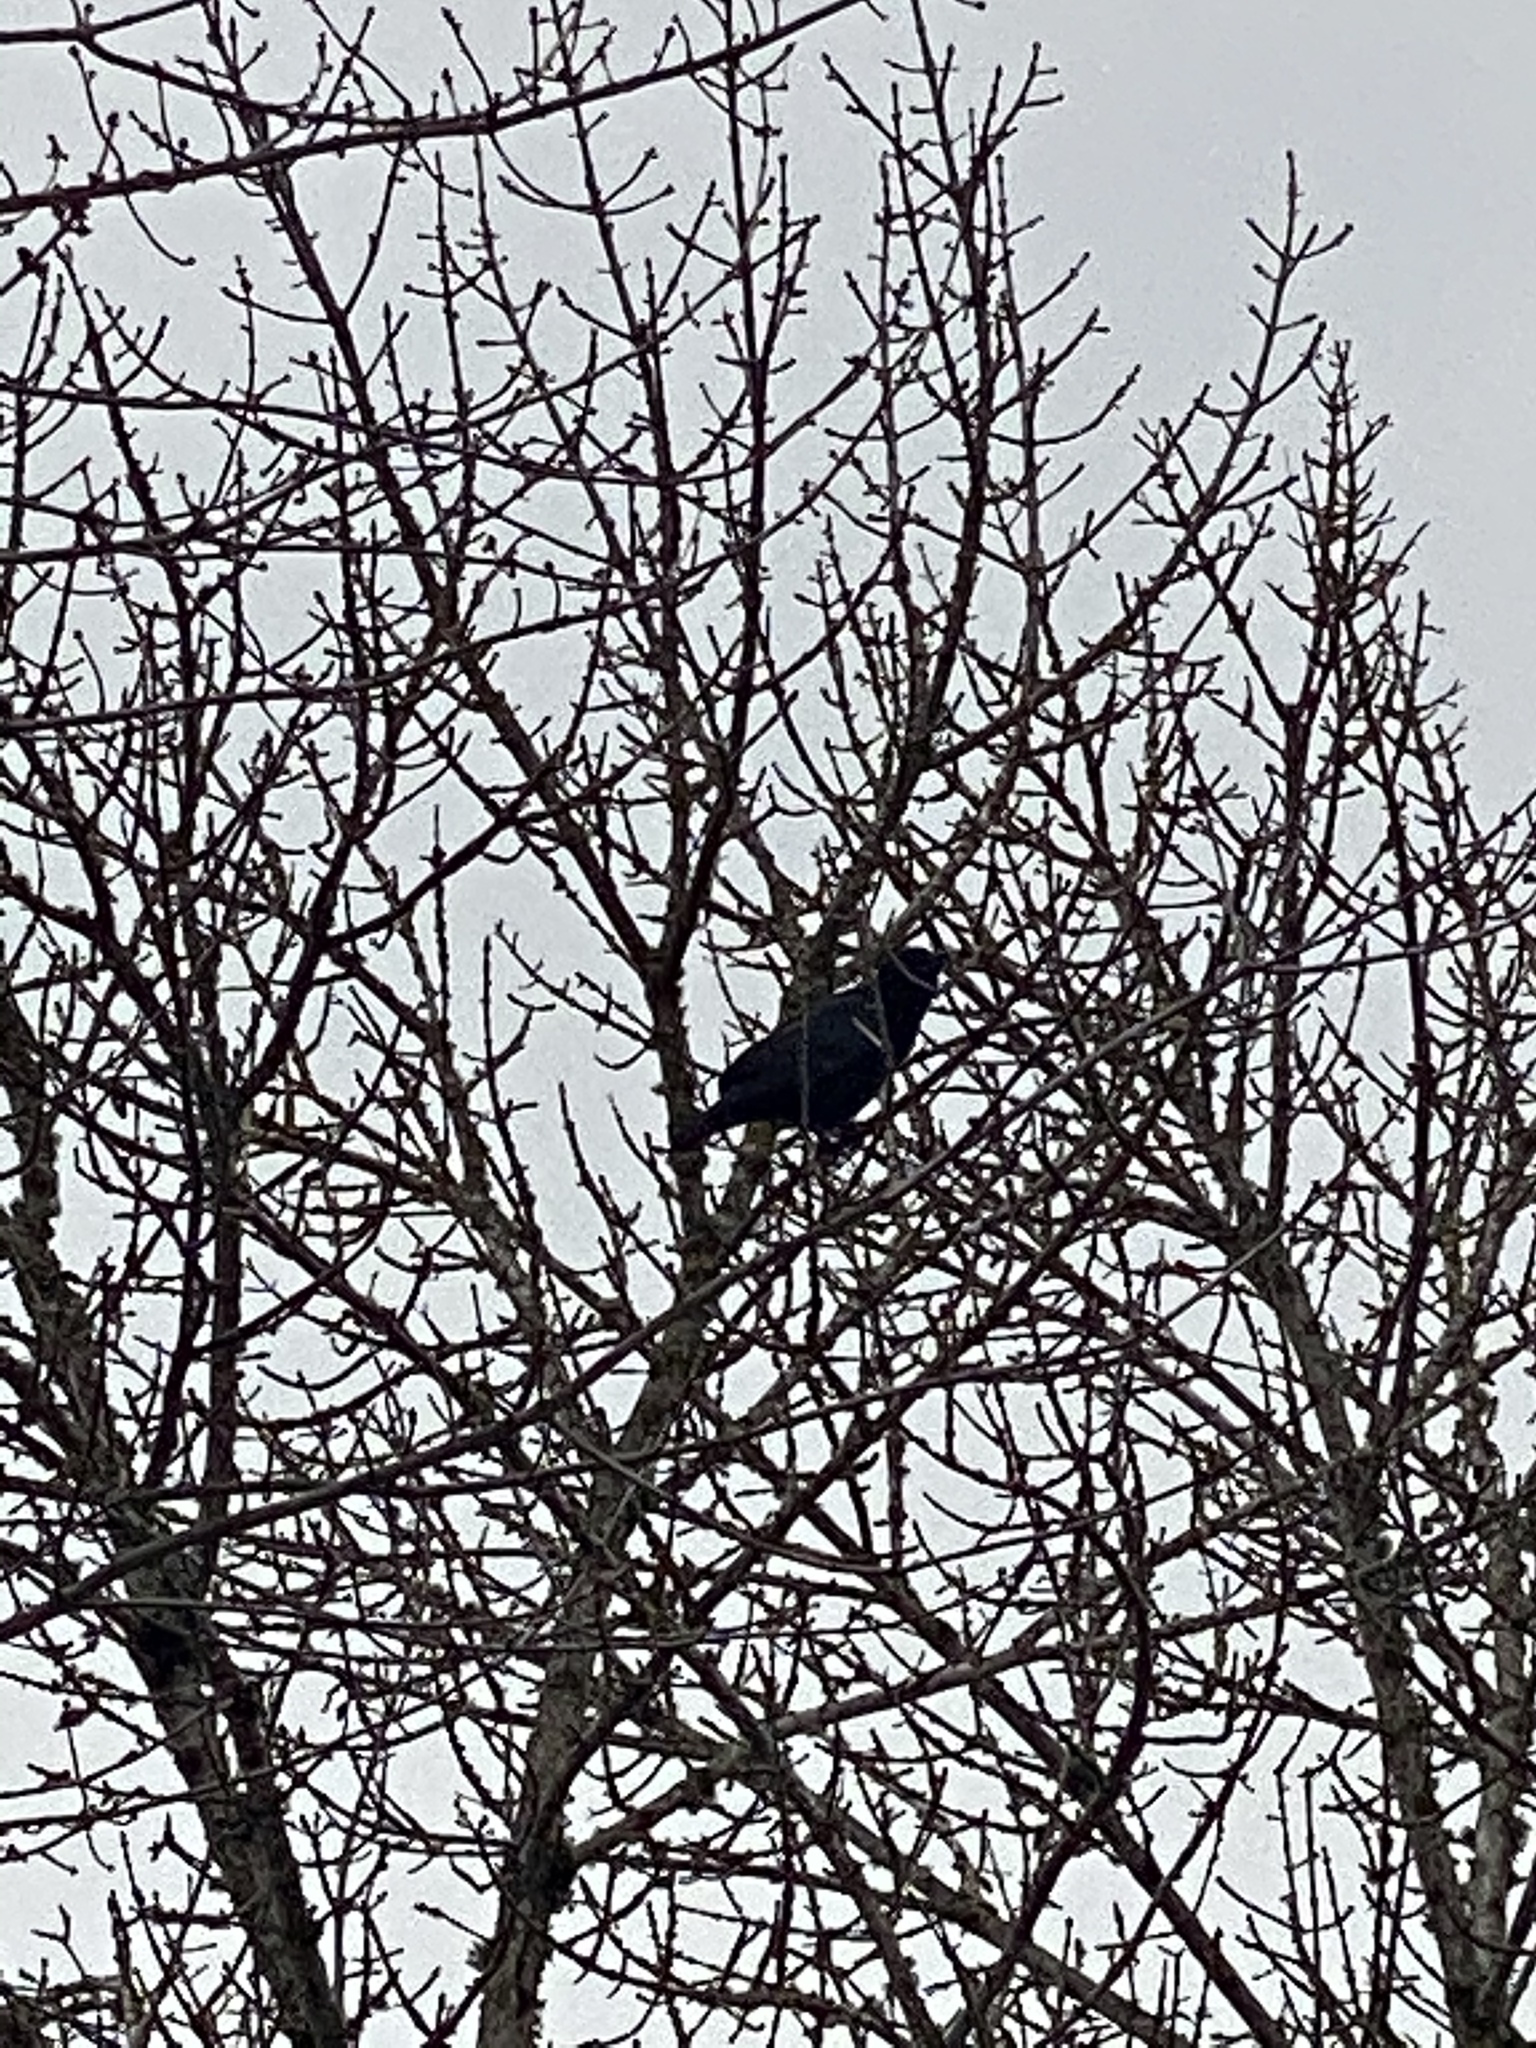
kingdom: Animalia
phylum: Chordata
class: Aves
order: Passeriformes
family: Corvidae
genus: Corvus
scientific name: Corvus brachyrhynchos
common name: American crow
